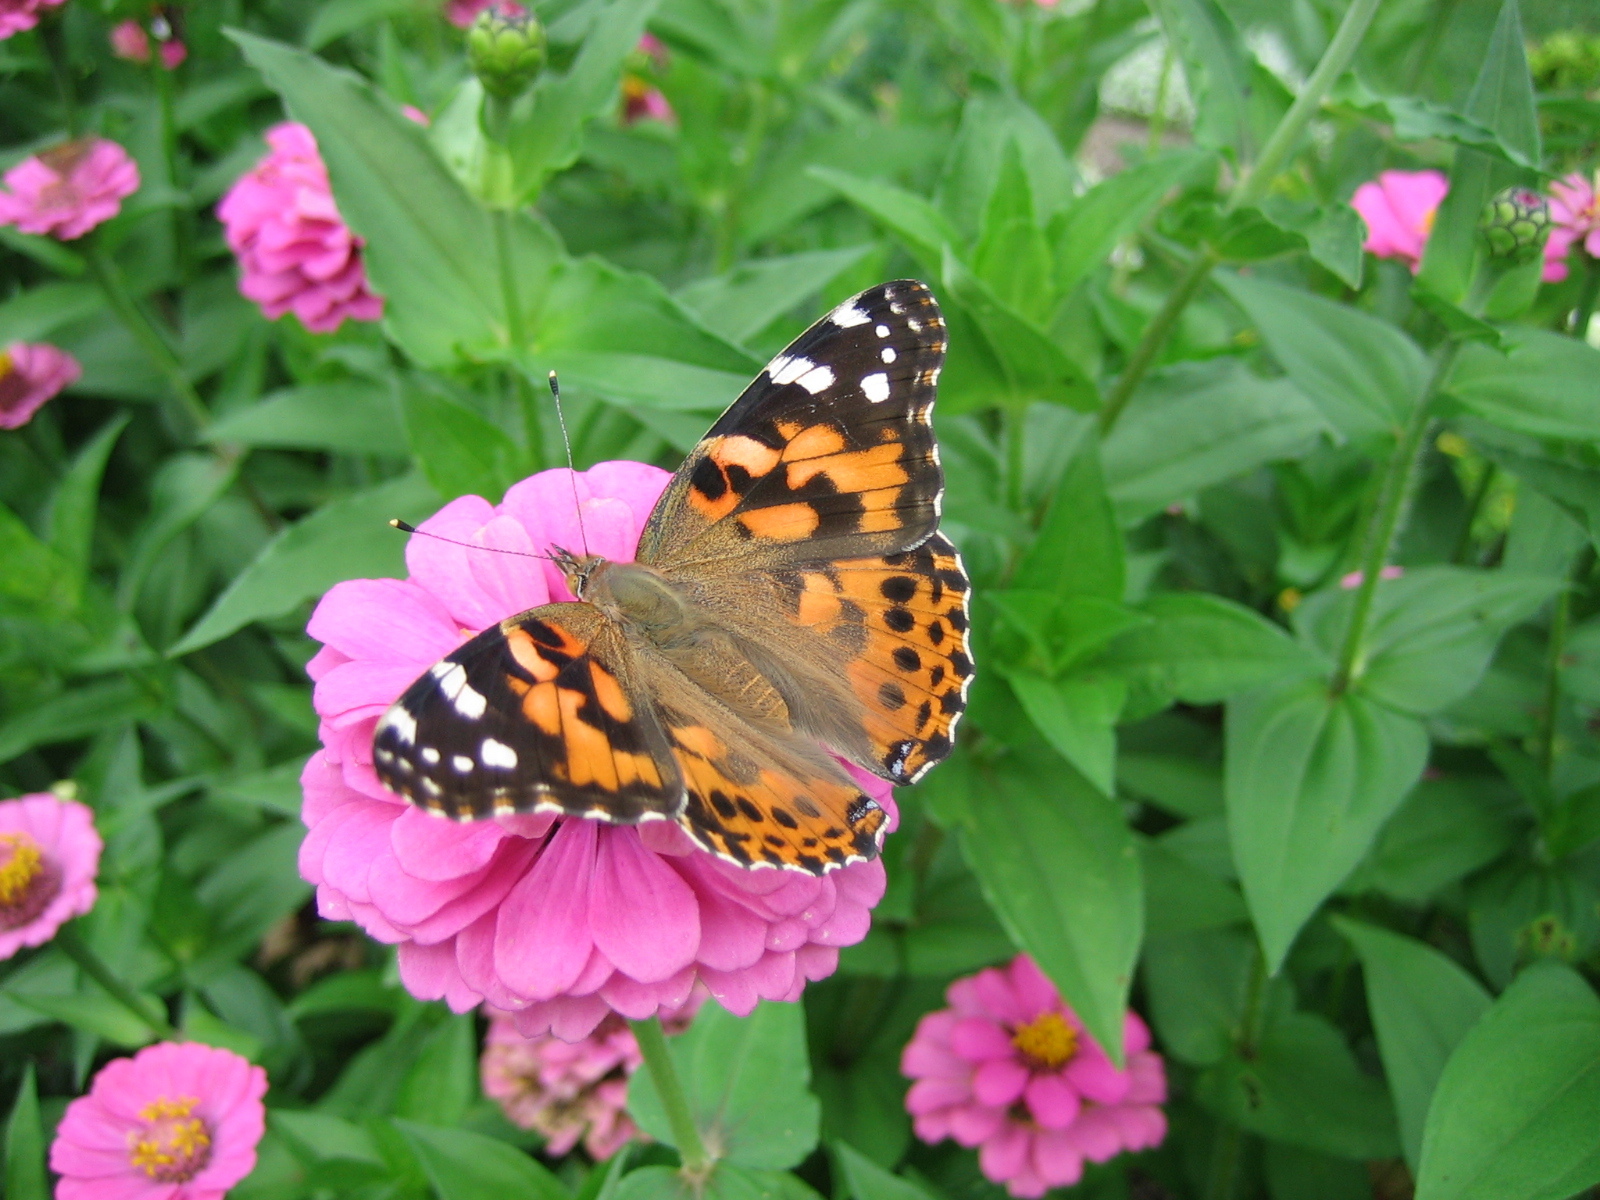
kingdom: Animalia
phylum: Arthropoda
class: Insecta
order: Lepidoptera
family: Nymphalidae
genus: Vanessa
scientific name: Vanessa cardui
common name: Painted lady
